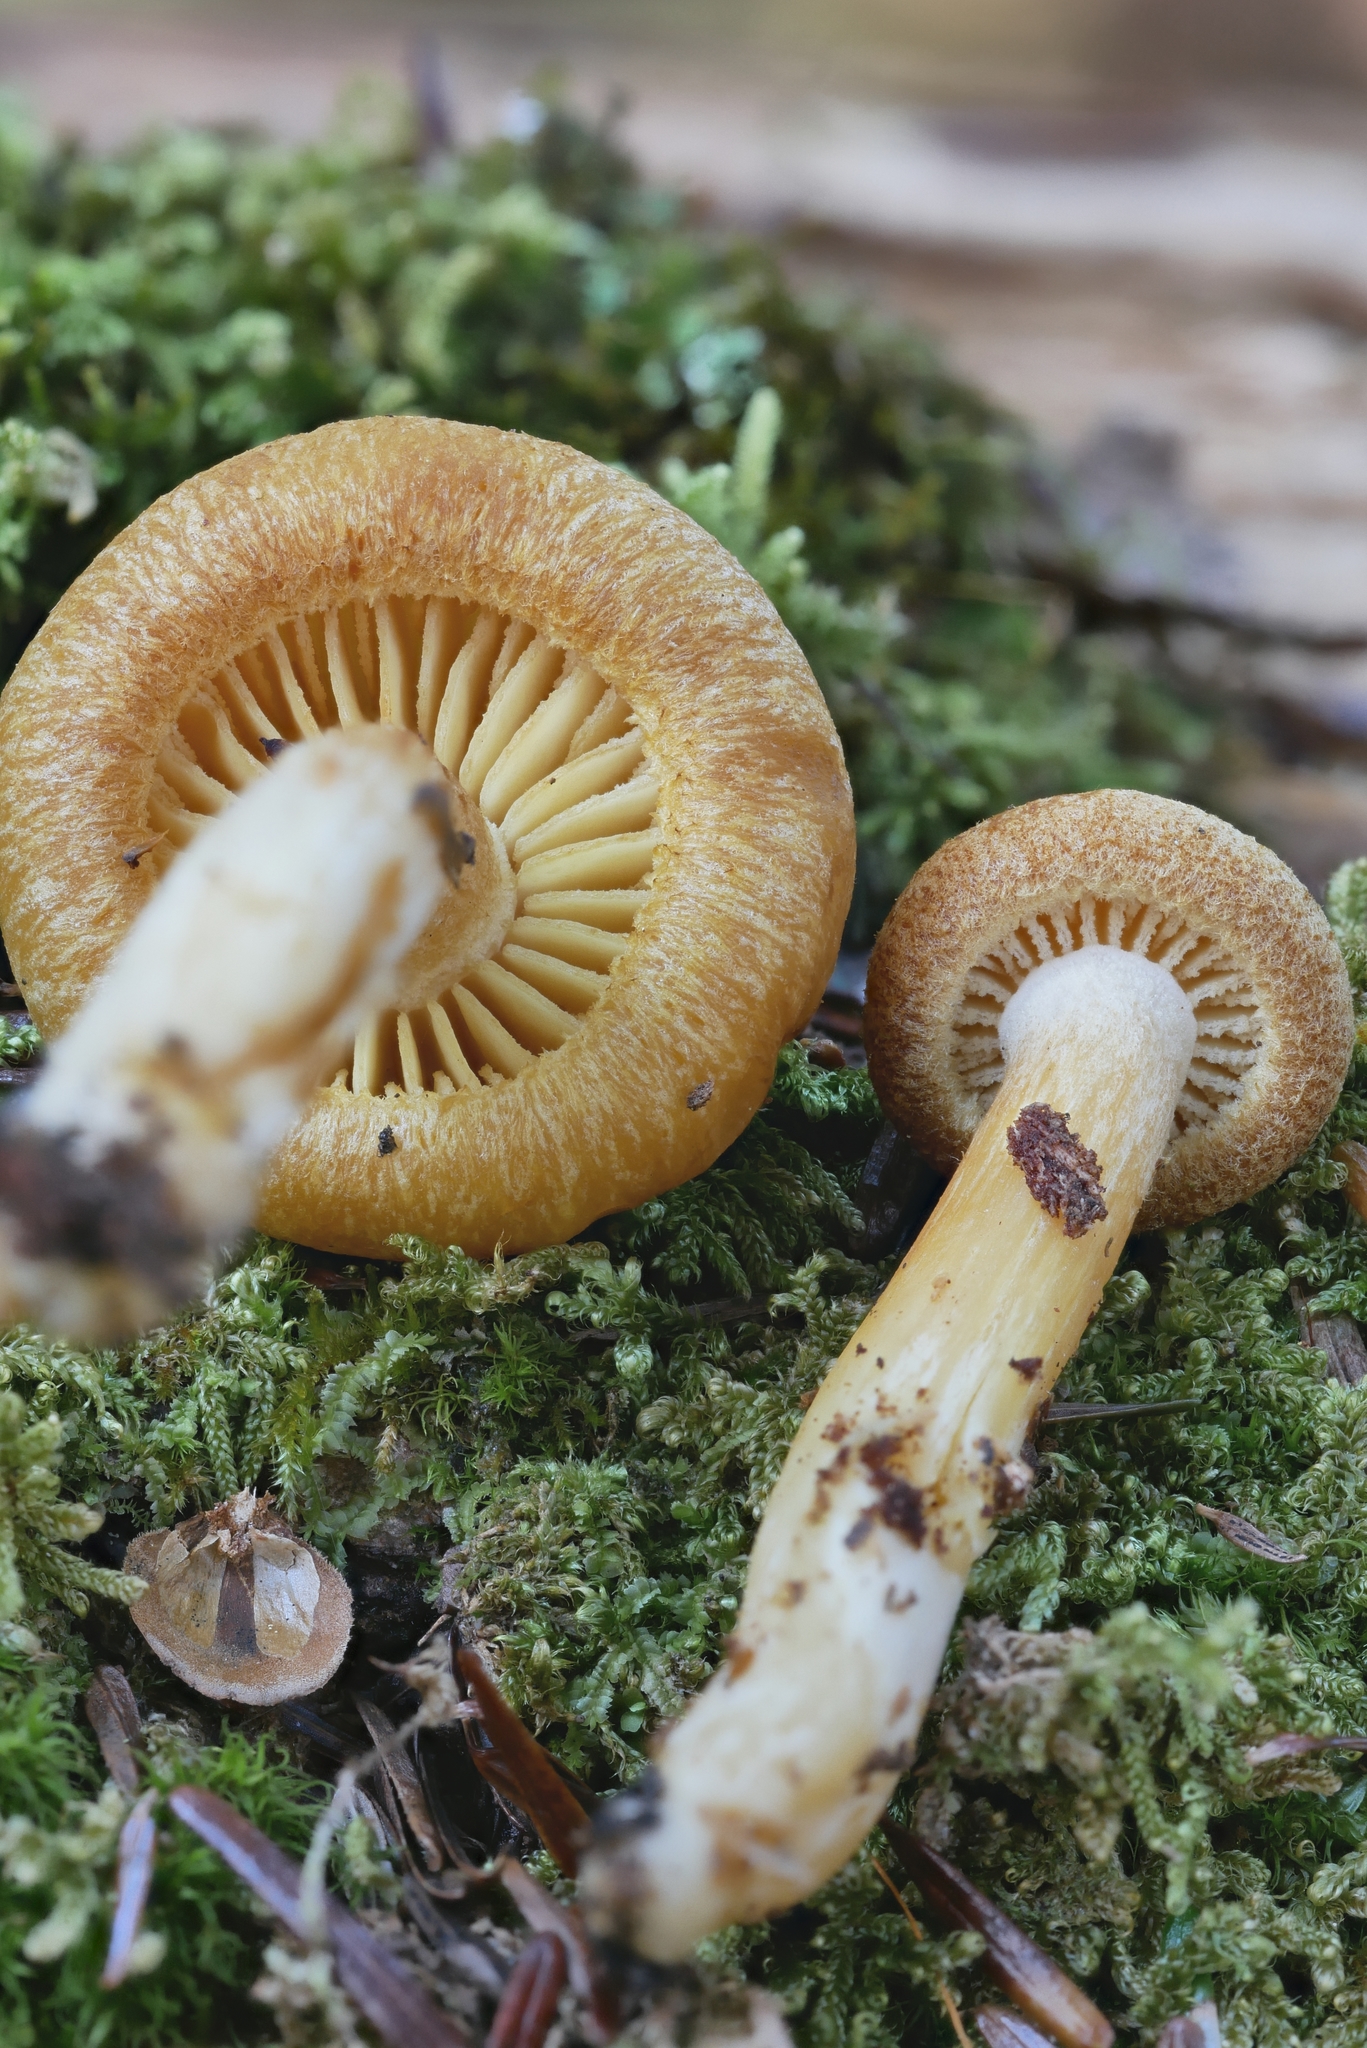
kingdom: Fungi
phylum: Basidiomycota
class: Agaricomycetes
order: Agaricales
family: Tricholomataceae
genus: Tricholomopsis
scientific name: Tricholomopsis sulfureoides
